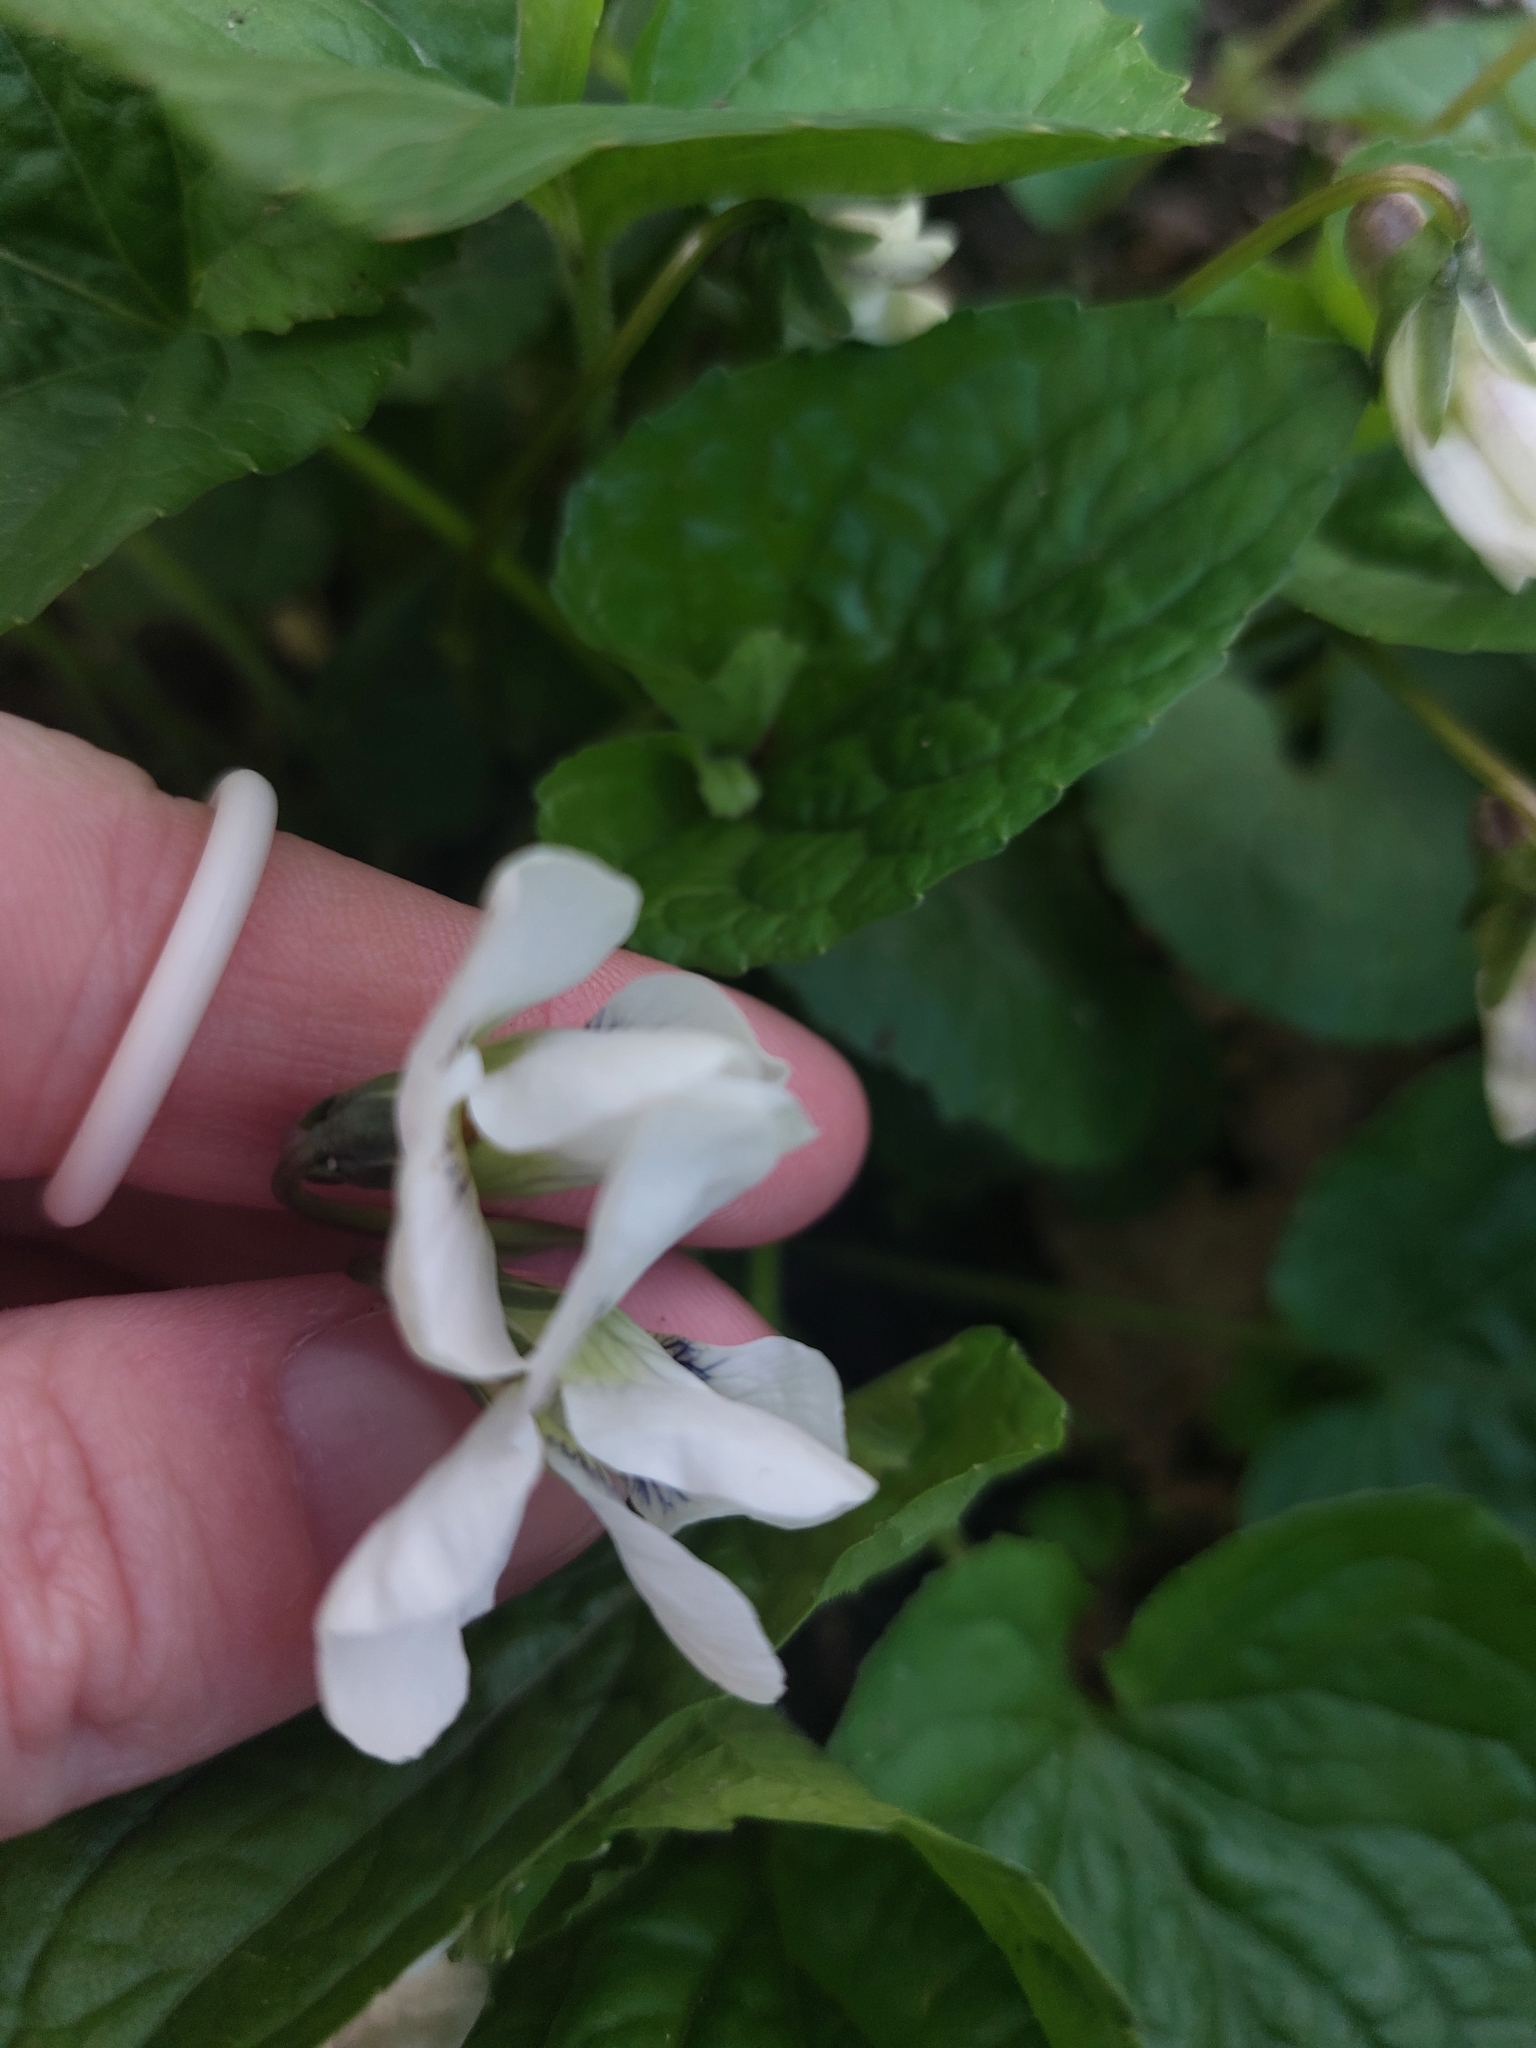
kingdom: Plantae
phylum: Tracheophyta
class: Magnoliopsida
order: Malpighiales
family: Violaceae
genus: Viola
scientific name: Viola sororia
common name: Dooryard violet
